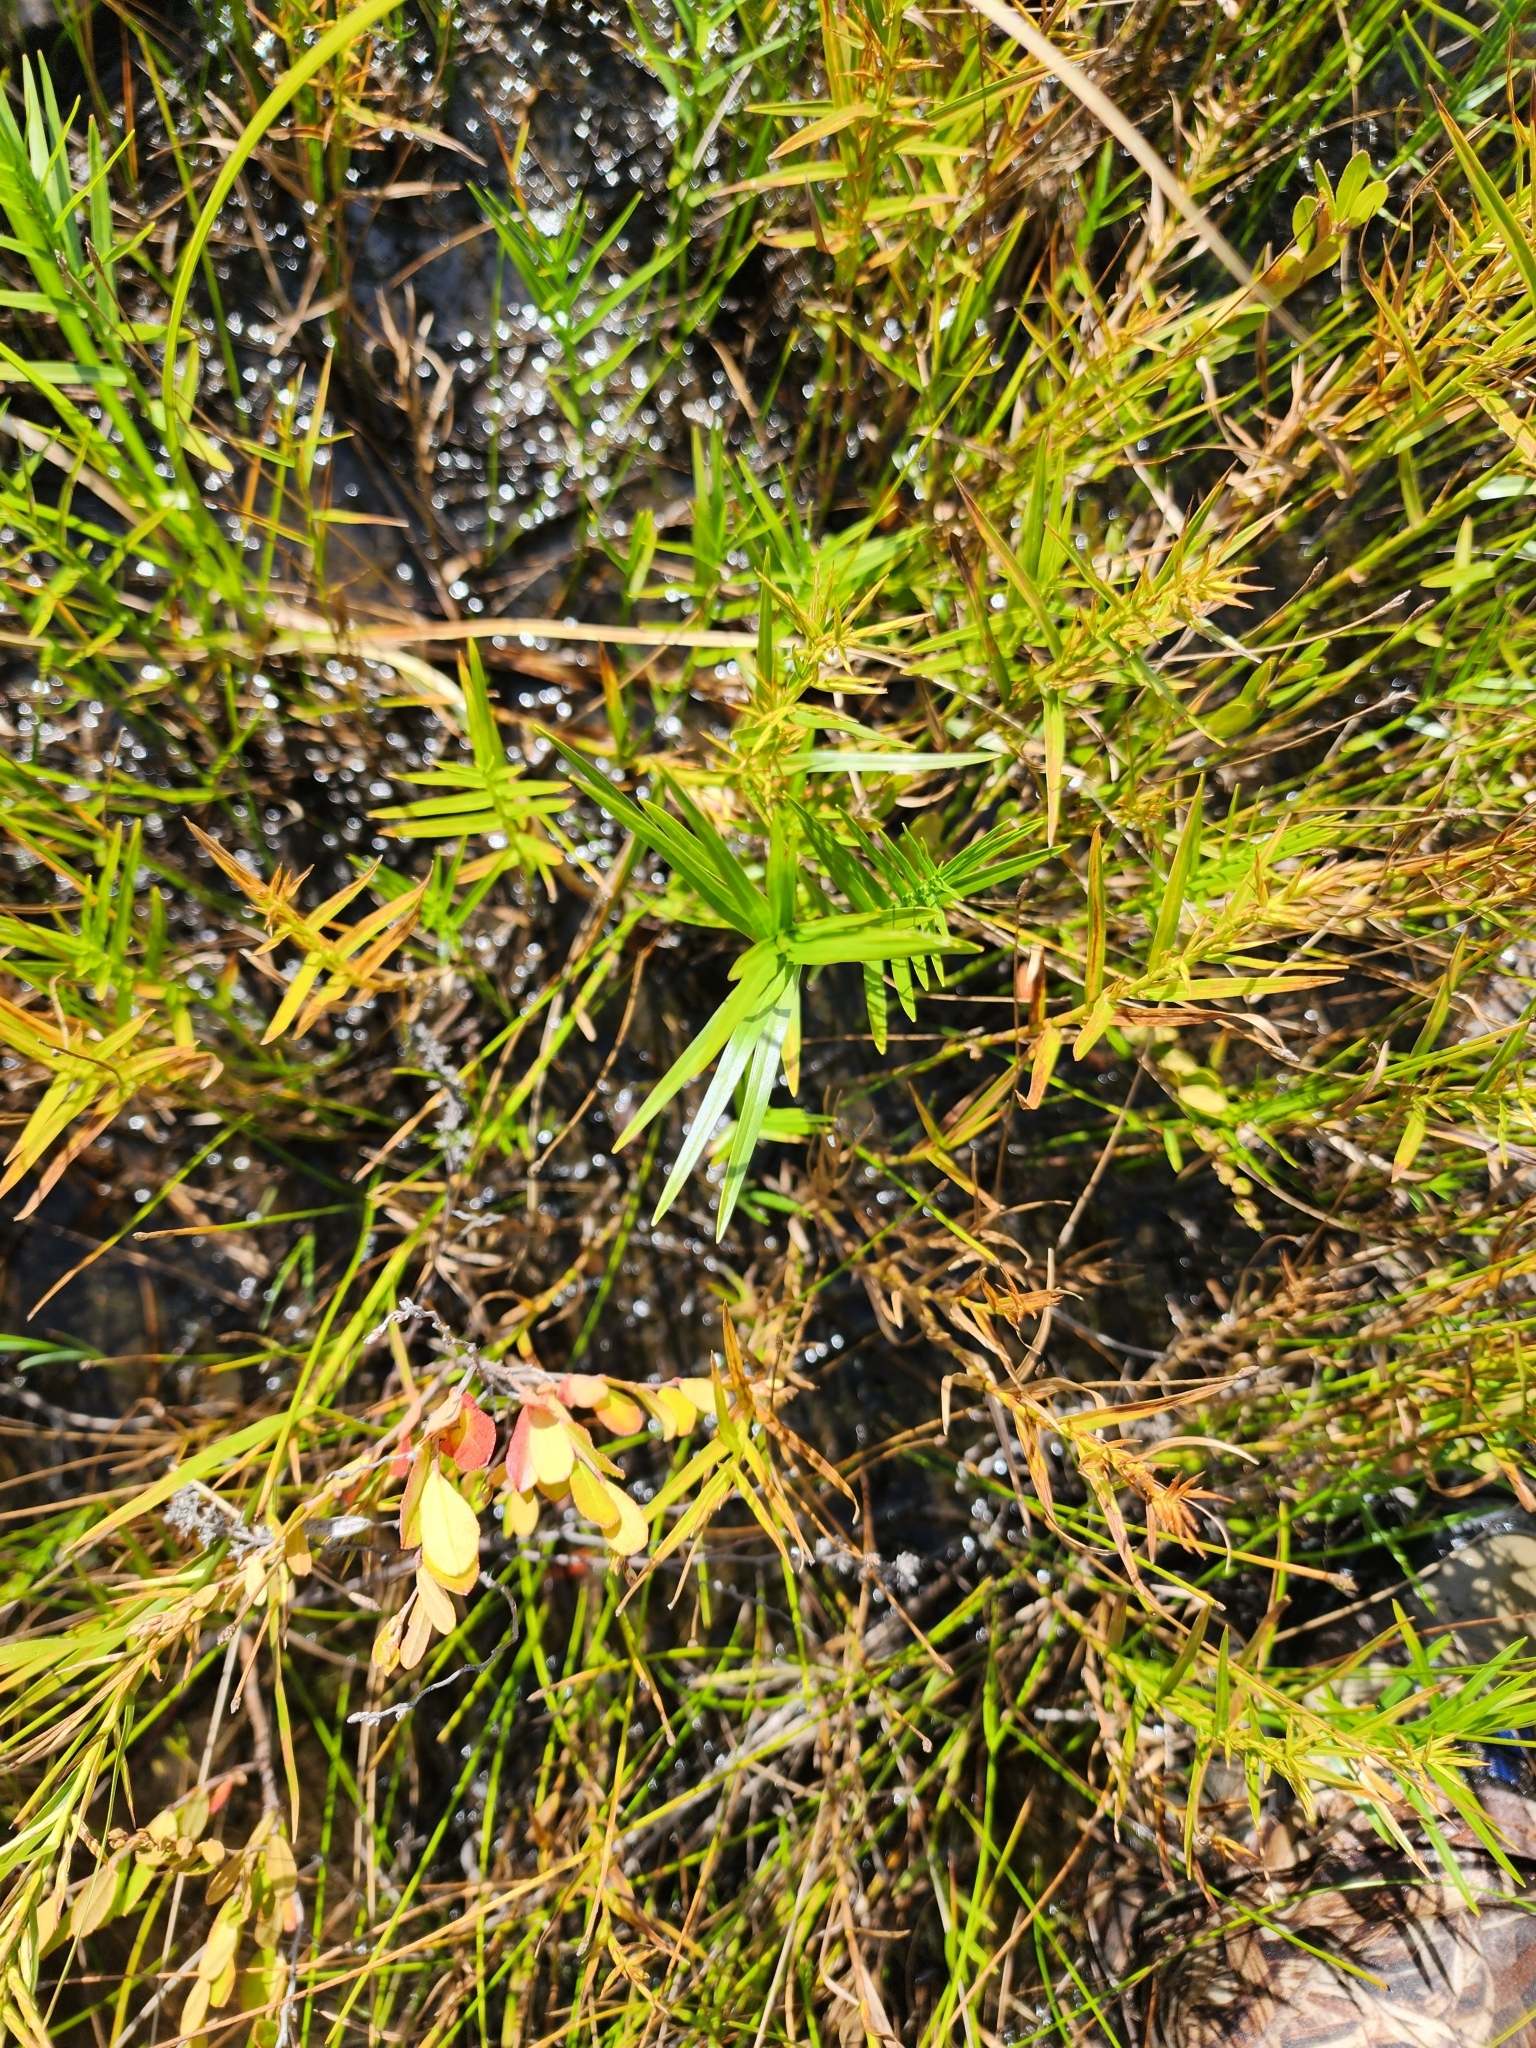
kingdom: Plantae
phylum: Tracheophyta
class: Liliopsida
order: Poales
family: Cyperaceae
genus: Dulichium
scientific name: Dulichium arundinaceum
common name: Three-way sedge
